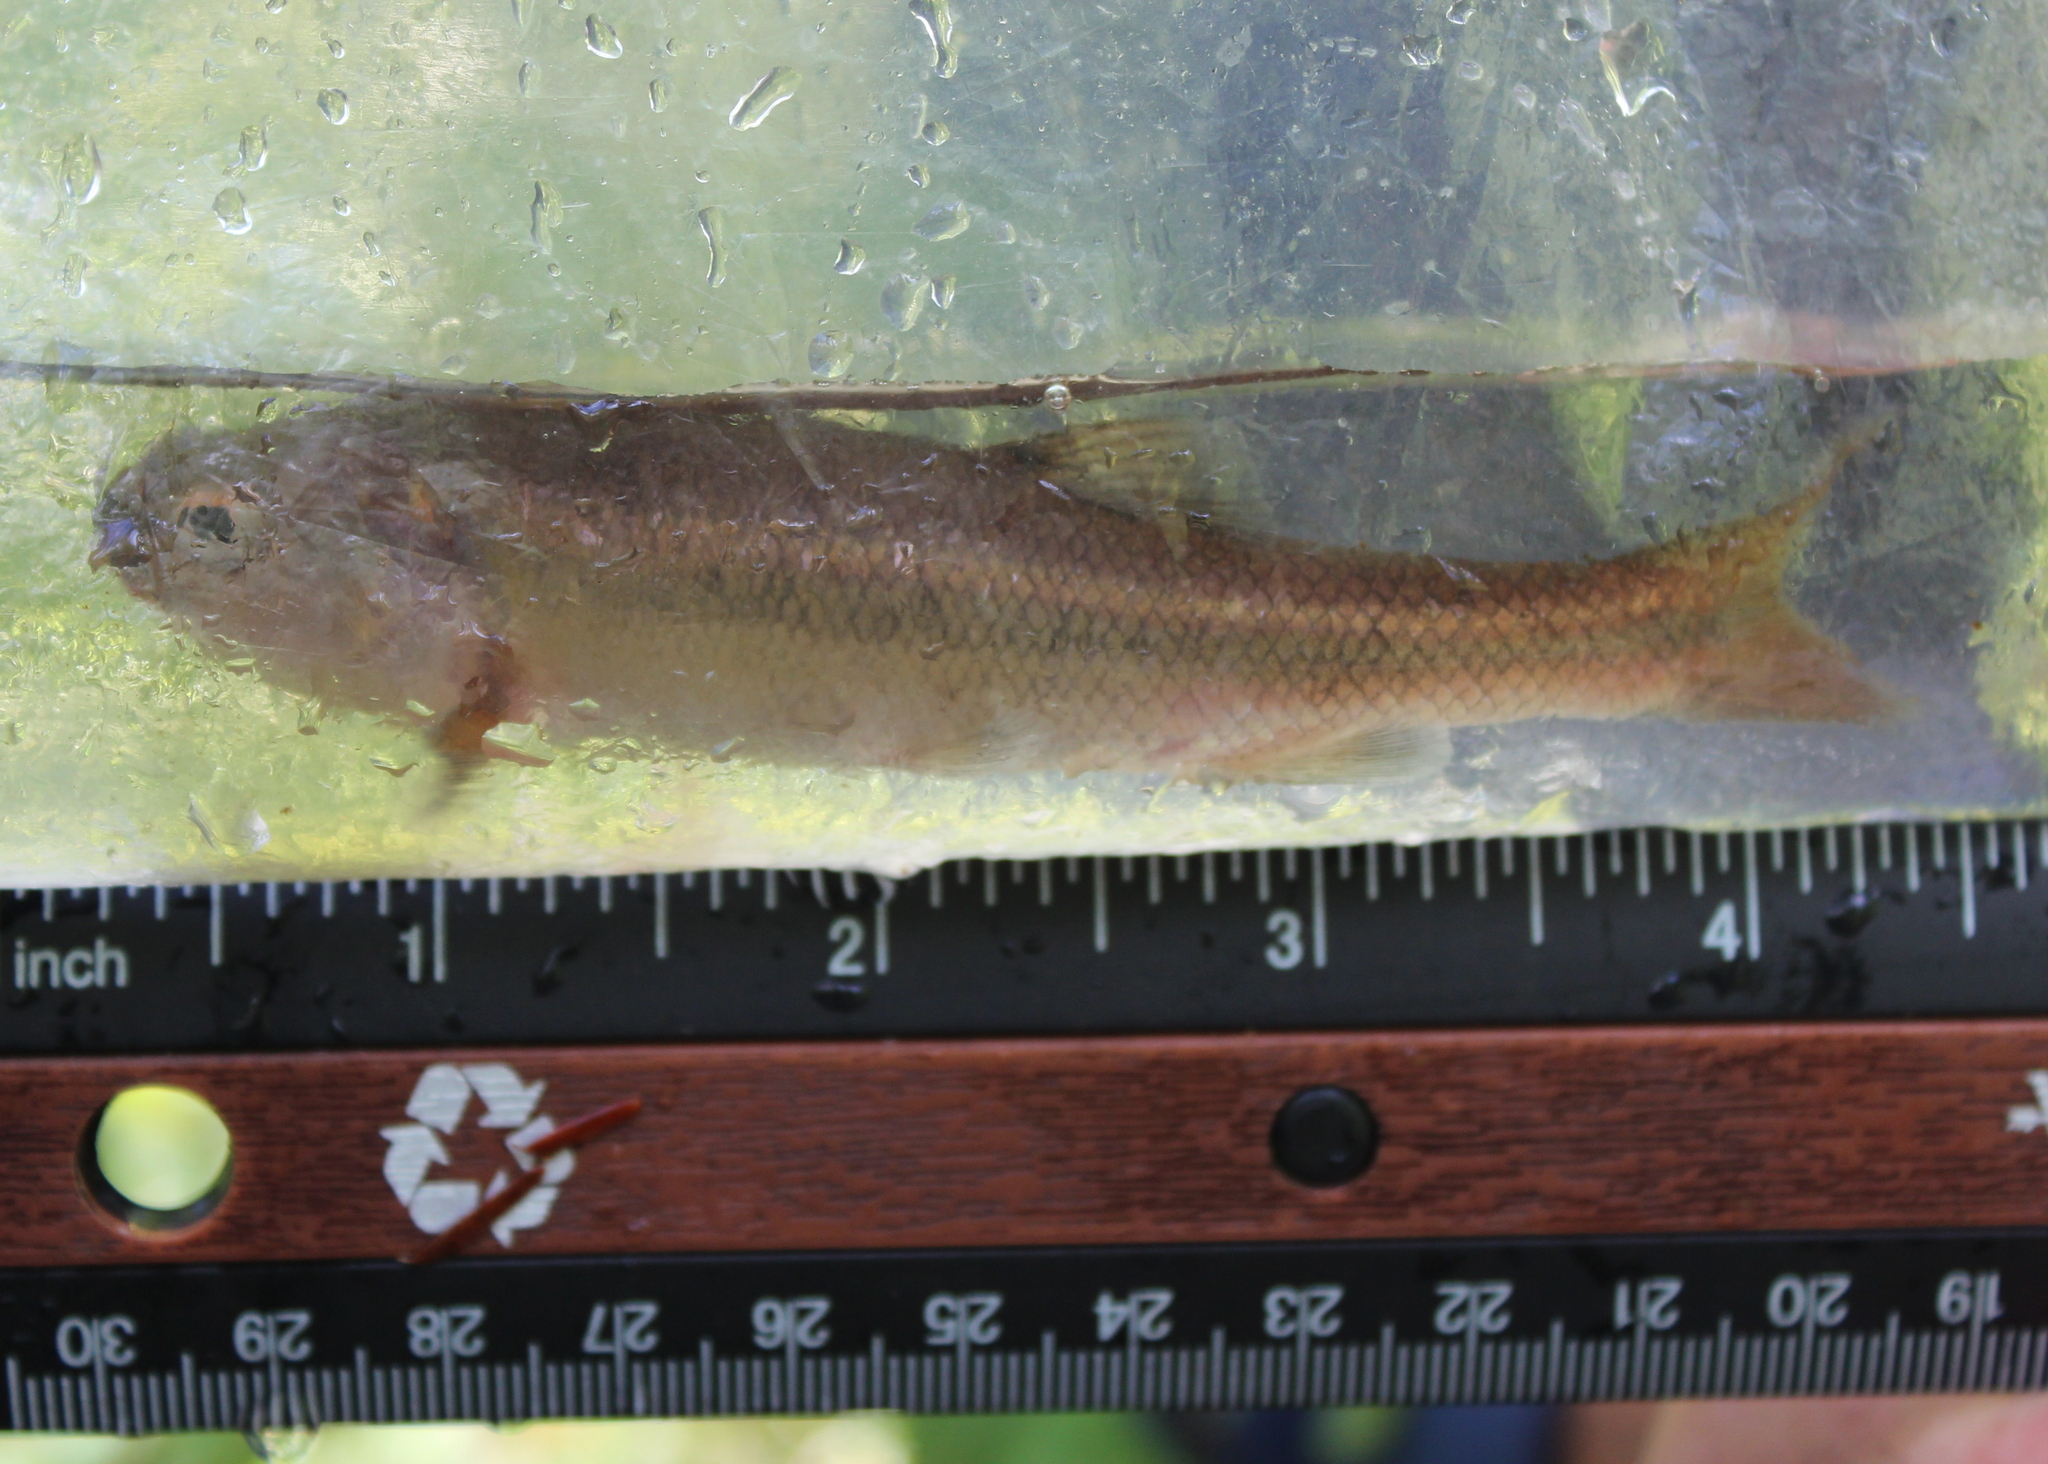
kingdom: Animalia
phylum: Chordata
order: Cypriniformes
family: Cyprinidae
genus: Semotilus
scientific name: Semotilus atromaculatus
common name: Creek chub
